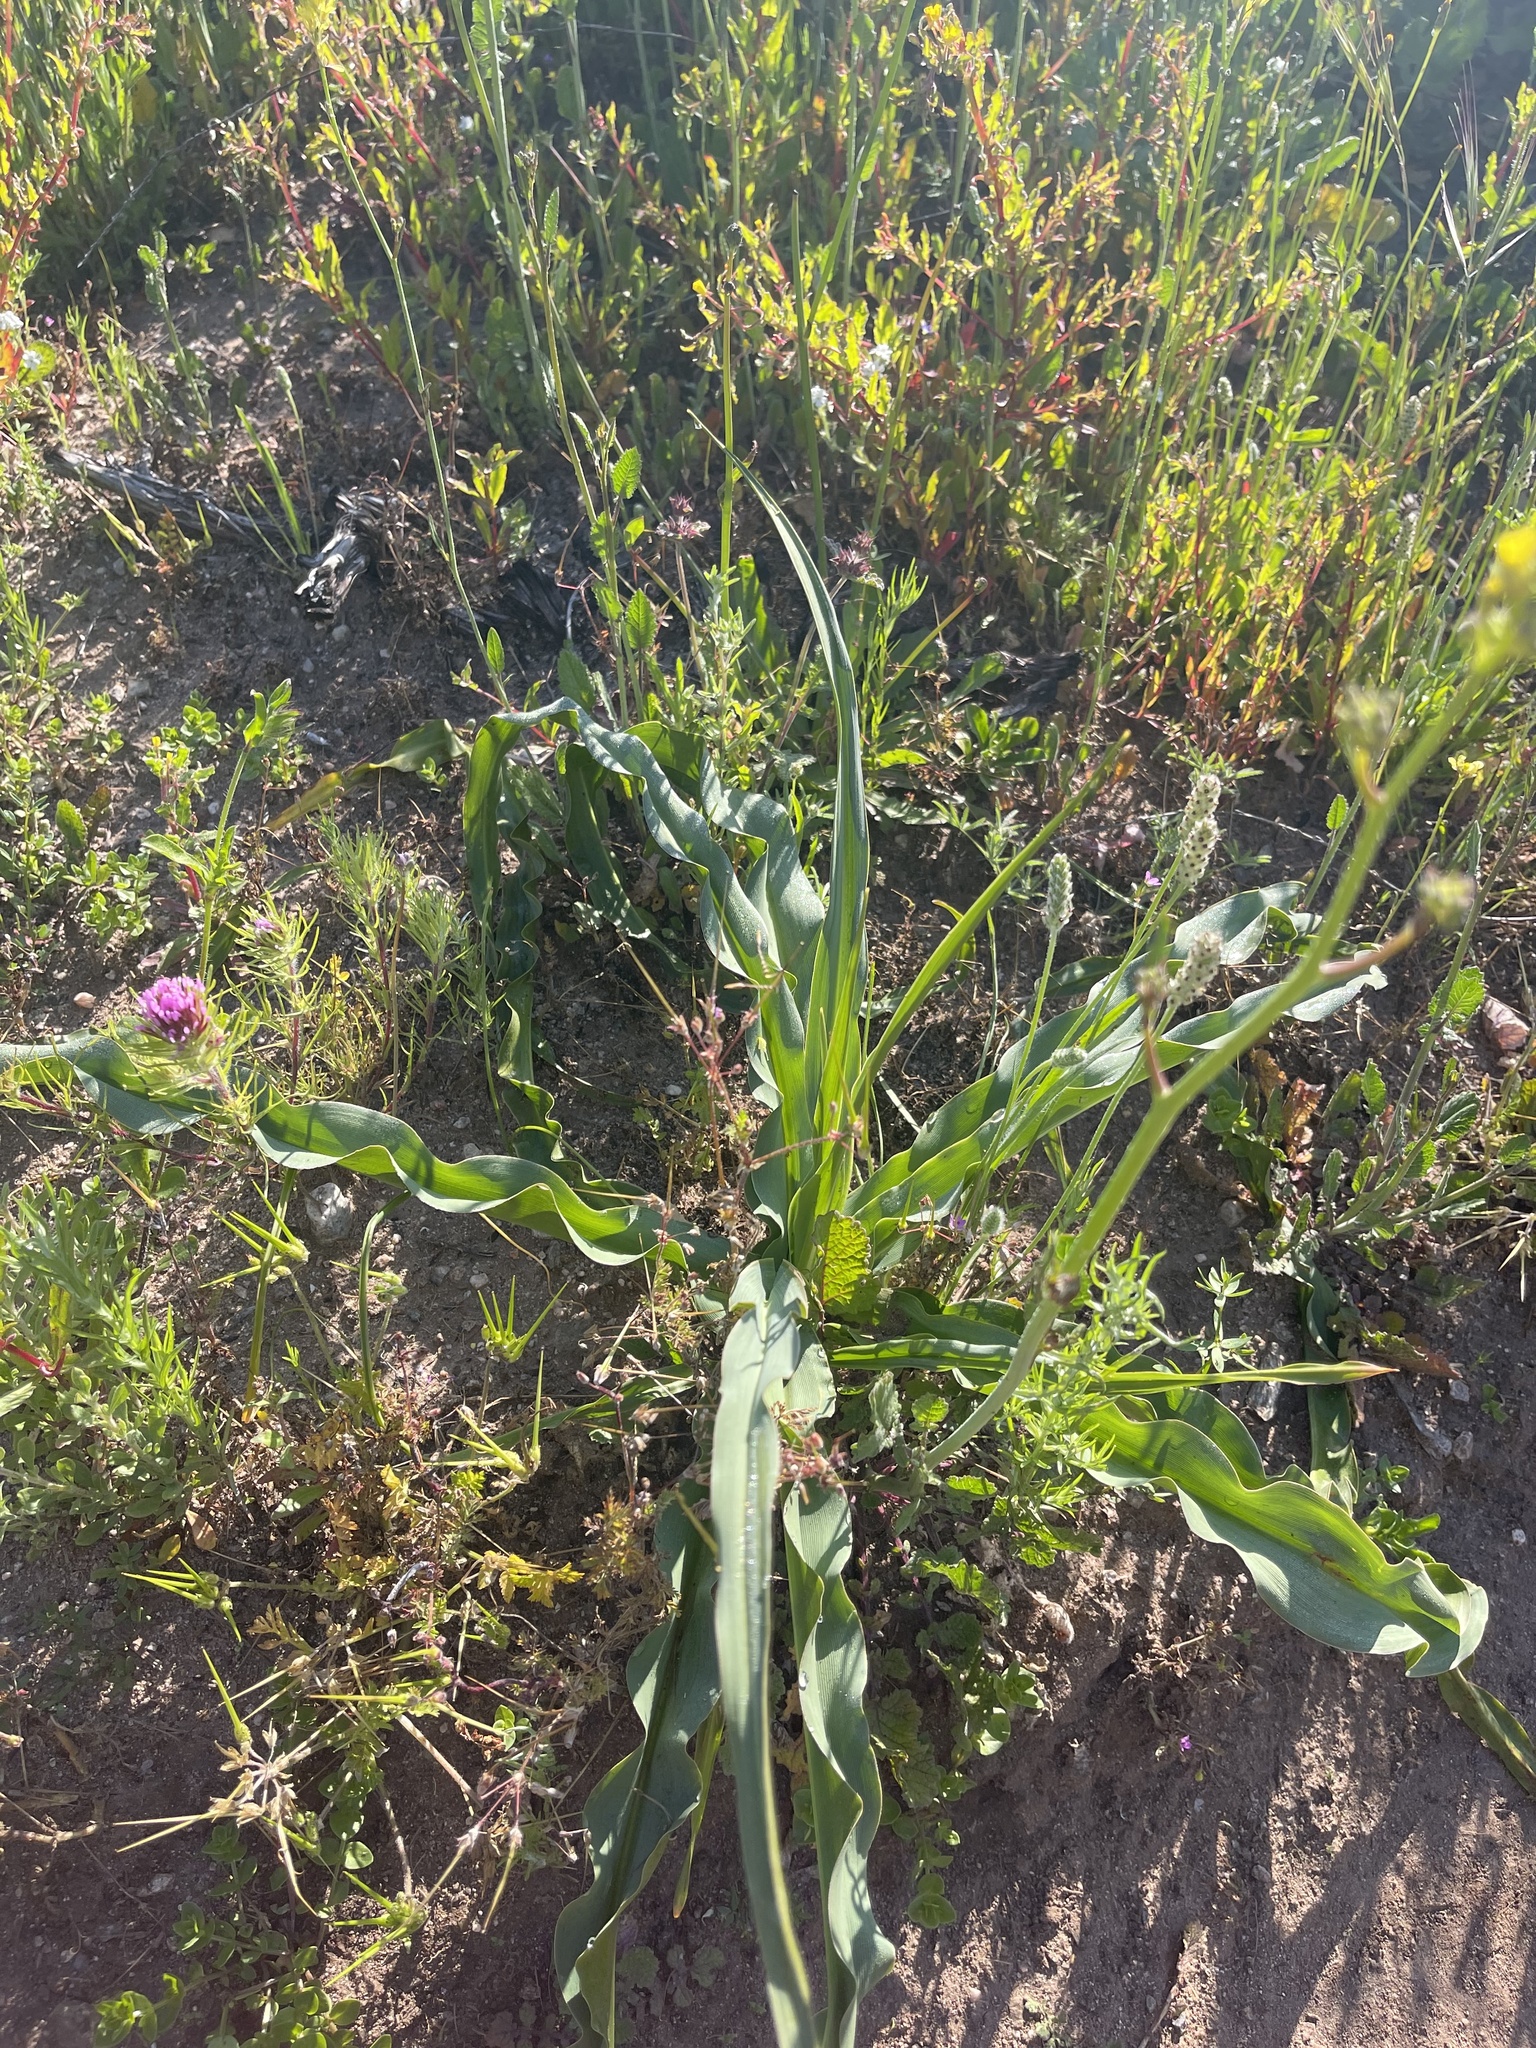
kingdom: Plantae
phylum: Tracheophyta
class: Liliopsida
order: Asparagales
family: Asparagaceae
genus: Chlorogalum
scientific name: Chlorogalum pomeridianum
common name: Amole
